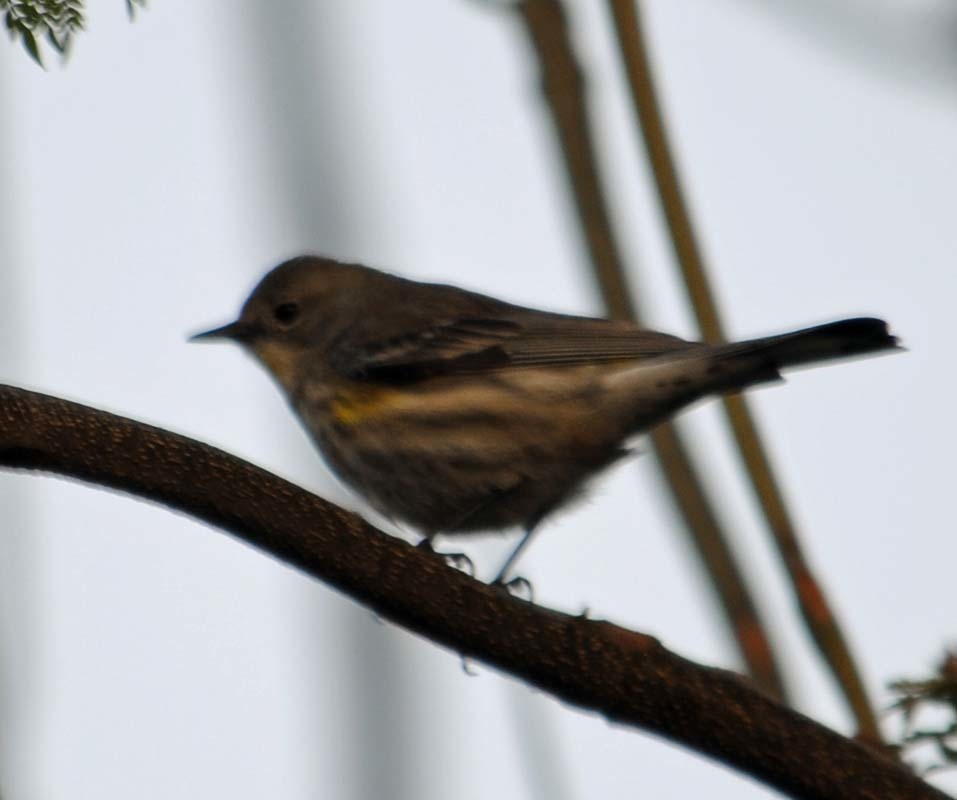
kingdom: Animalia
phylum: Chordata
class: Aves
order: Passeriformes
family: Parulidae
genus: Setophaga
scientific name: Setophaga auduboni
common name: Audubon's warbler
